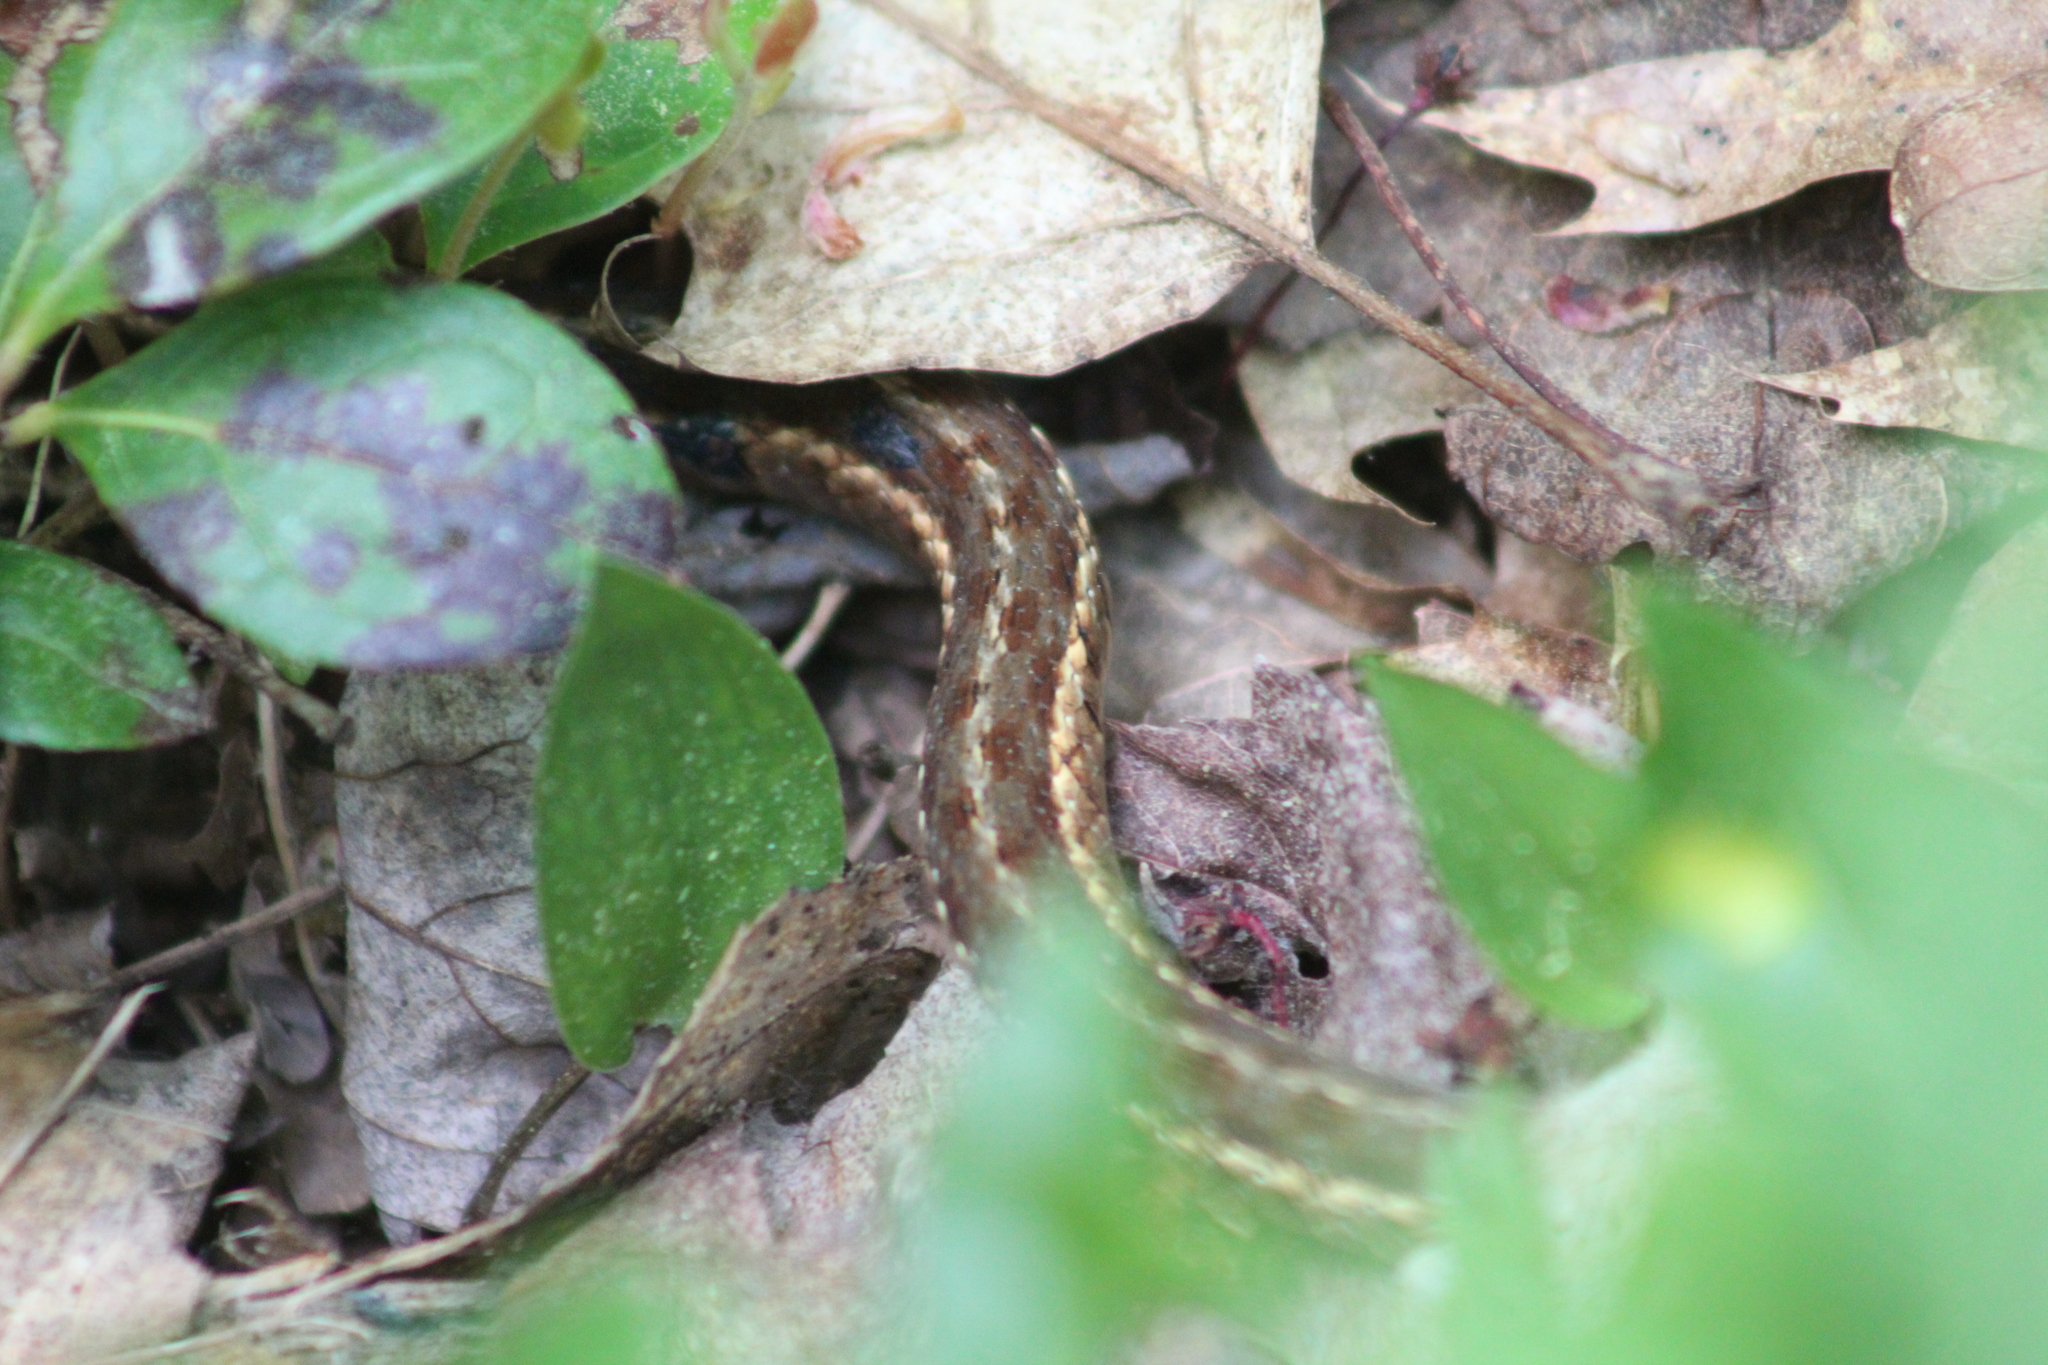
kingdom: Animalia
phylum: Chordata
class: Squamata
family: Colubridae
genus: Thamnophis
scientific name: Thamnophis sirtalis
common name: Common garter snake
